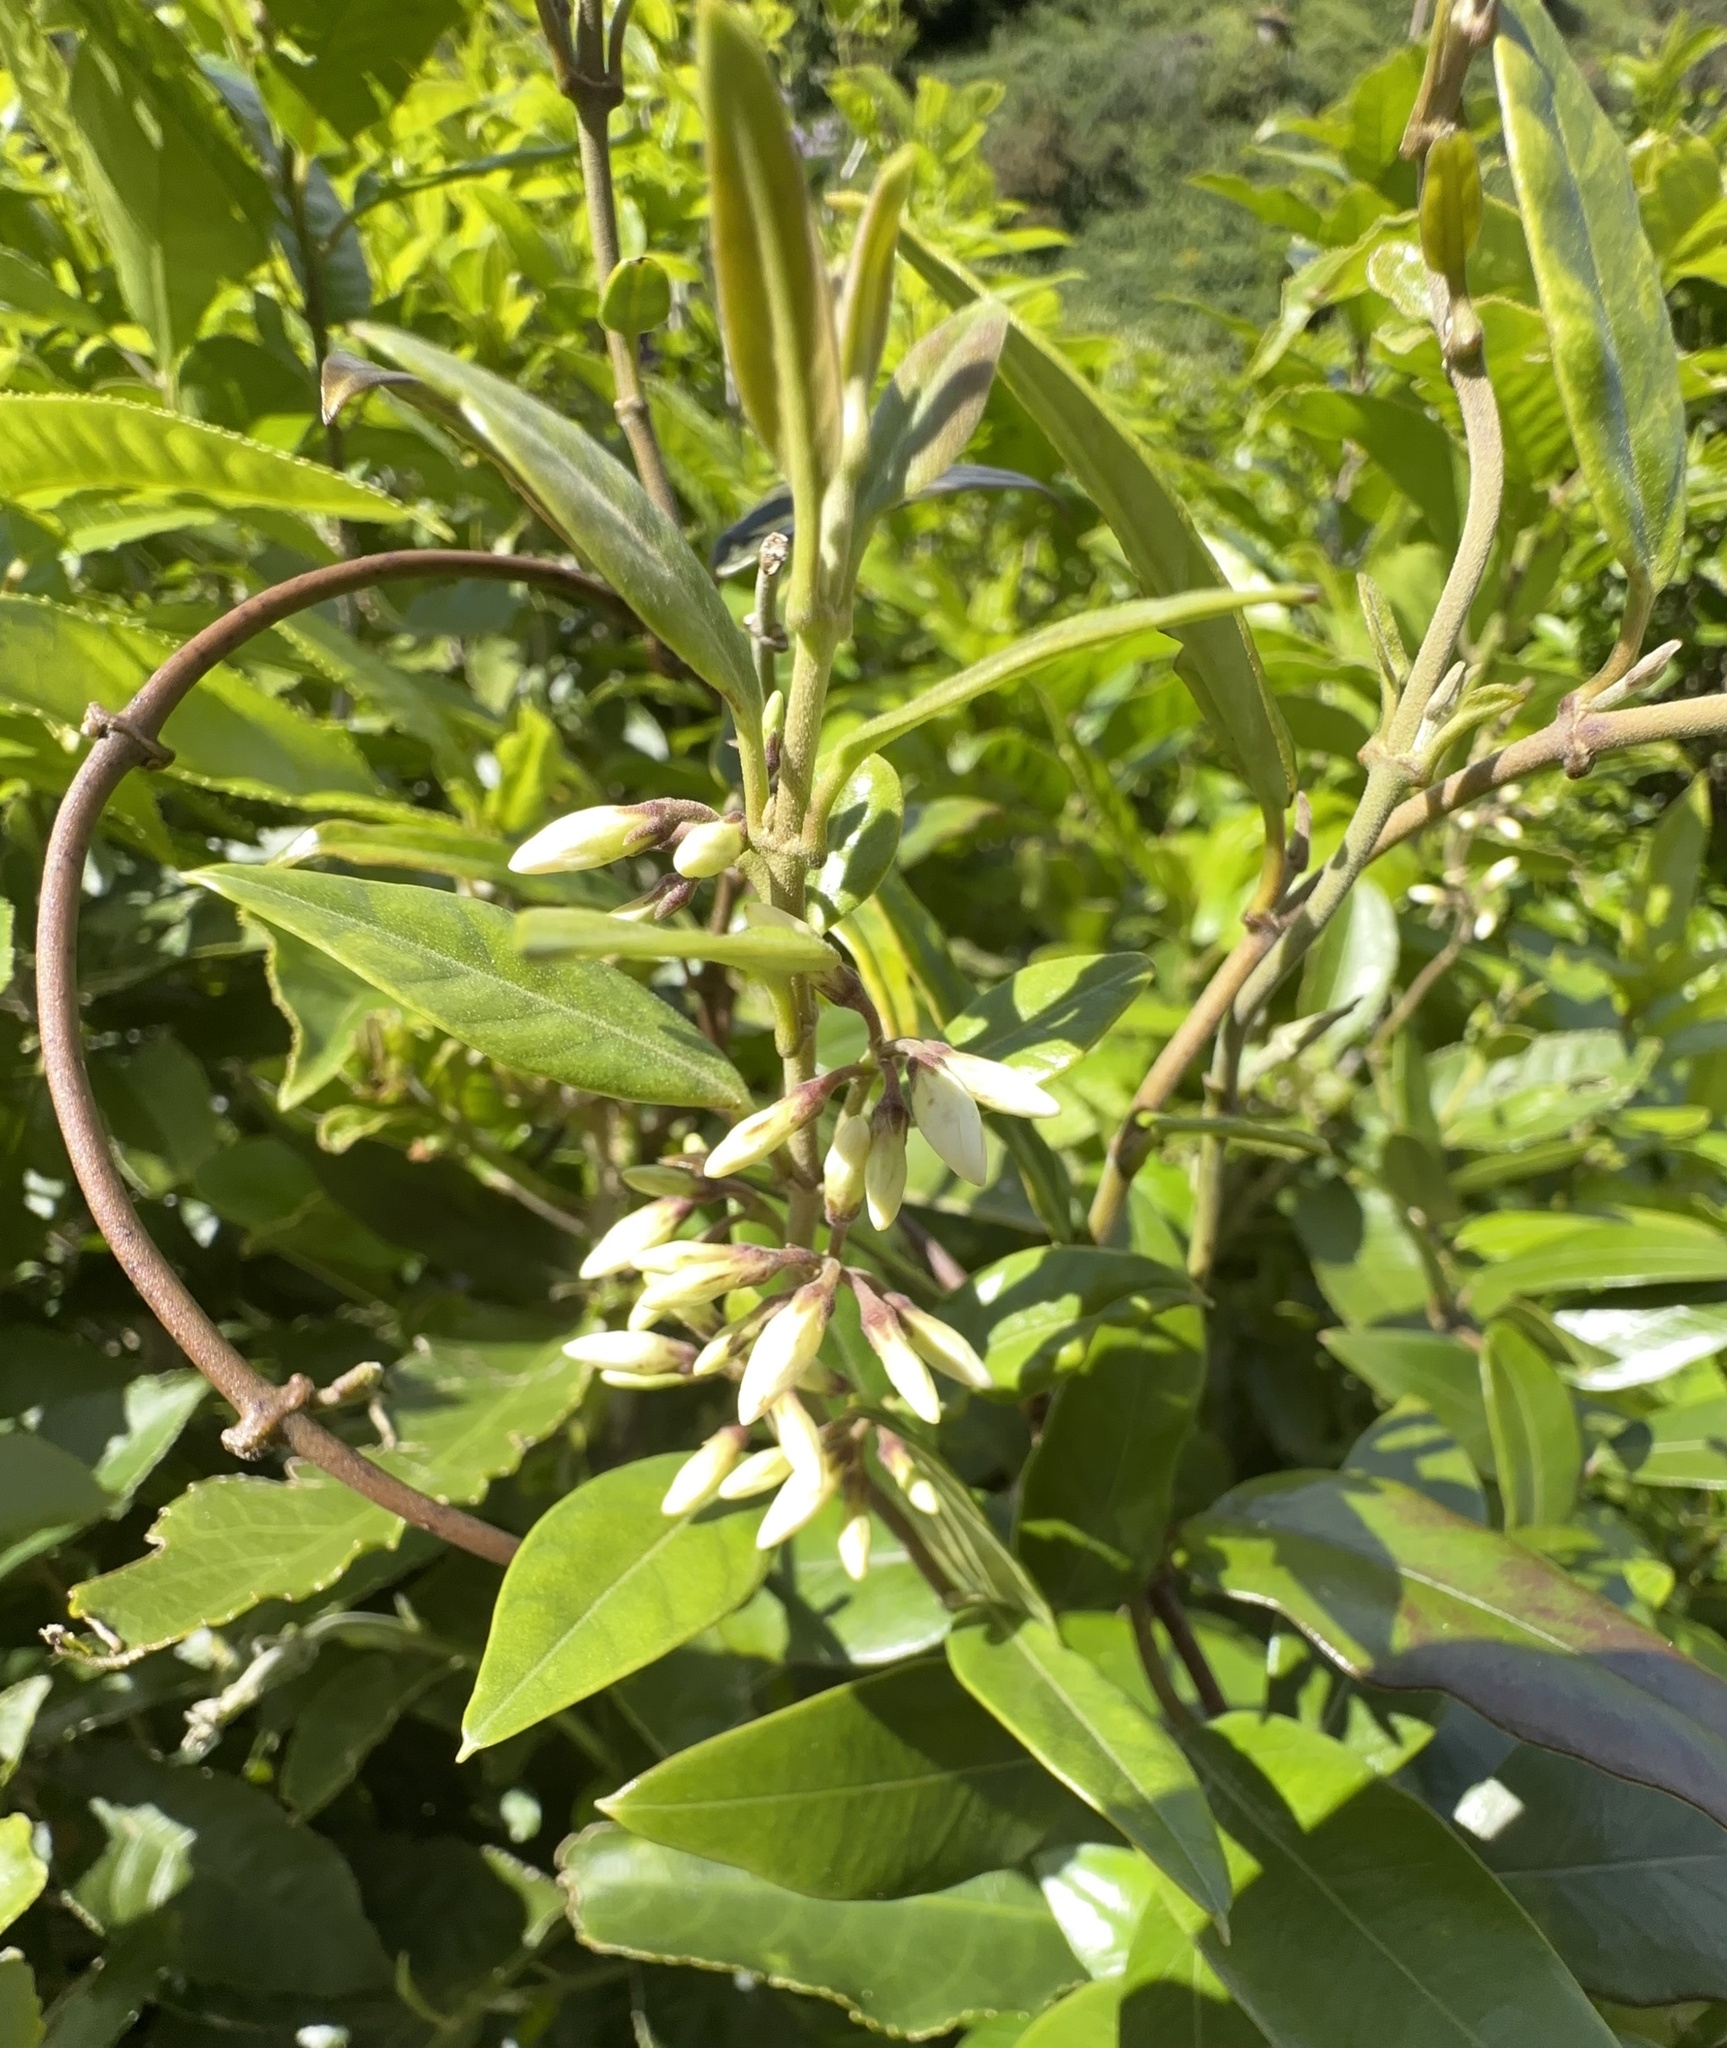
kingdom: Plantae
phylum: Tracheophyta
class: Magnoliopsida
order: Gentianales
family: Apocynaceae
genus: Parsonsia
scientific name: Parsonsia heterophylla
